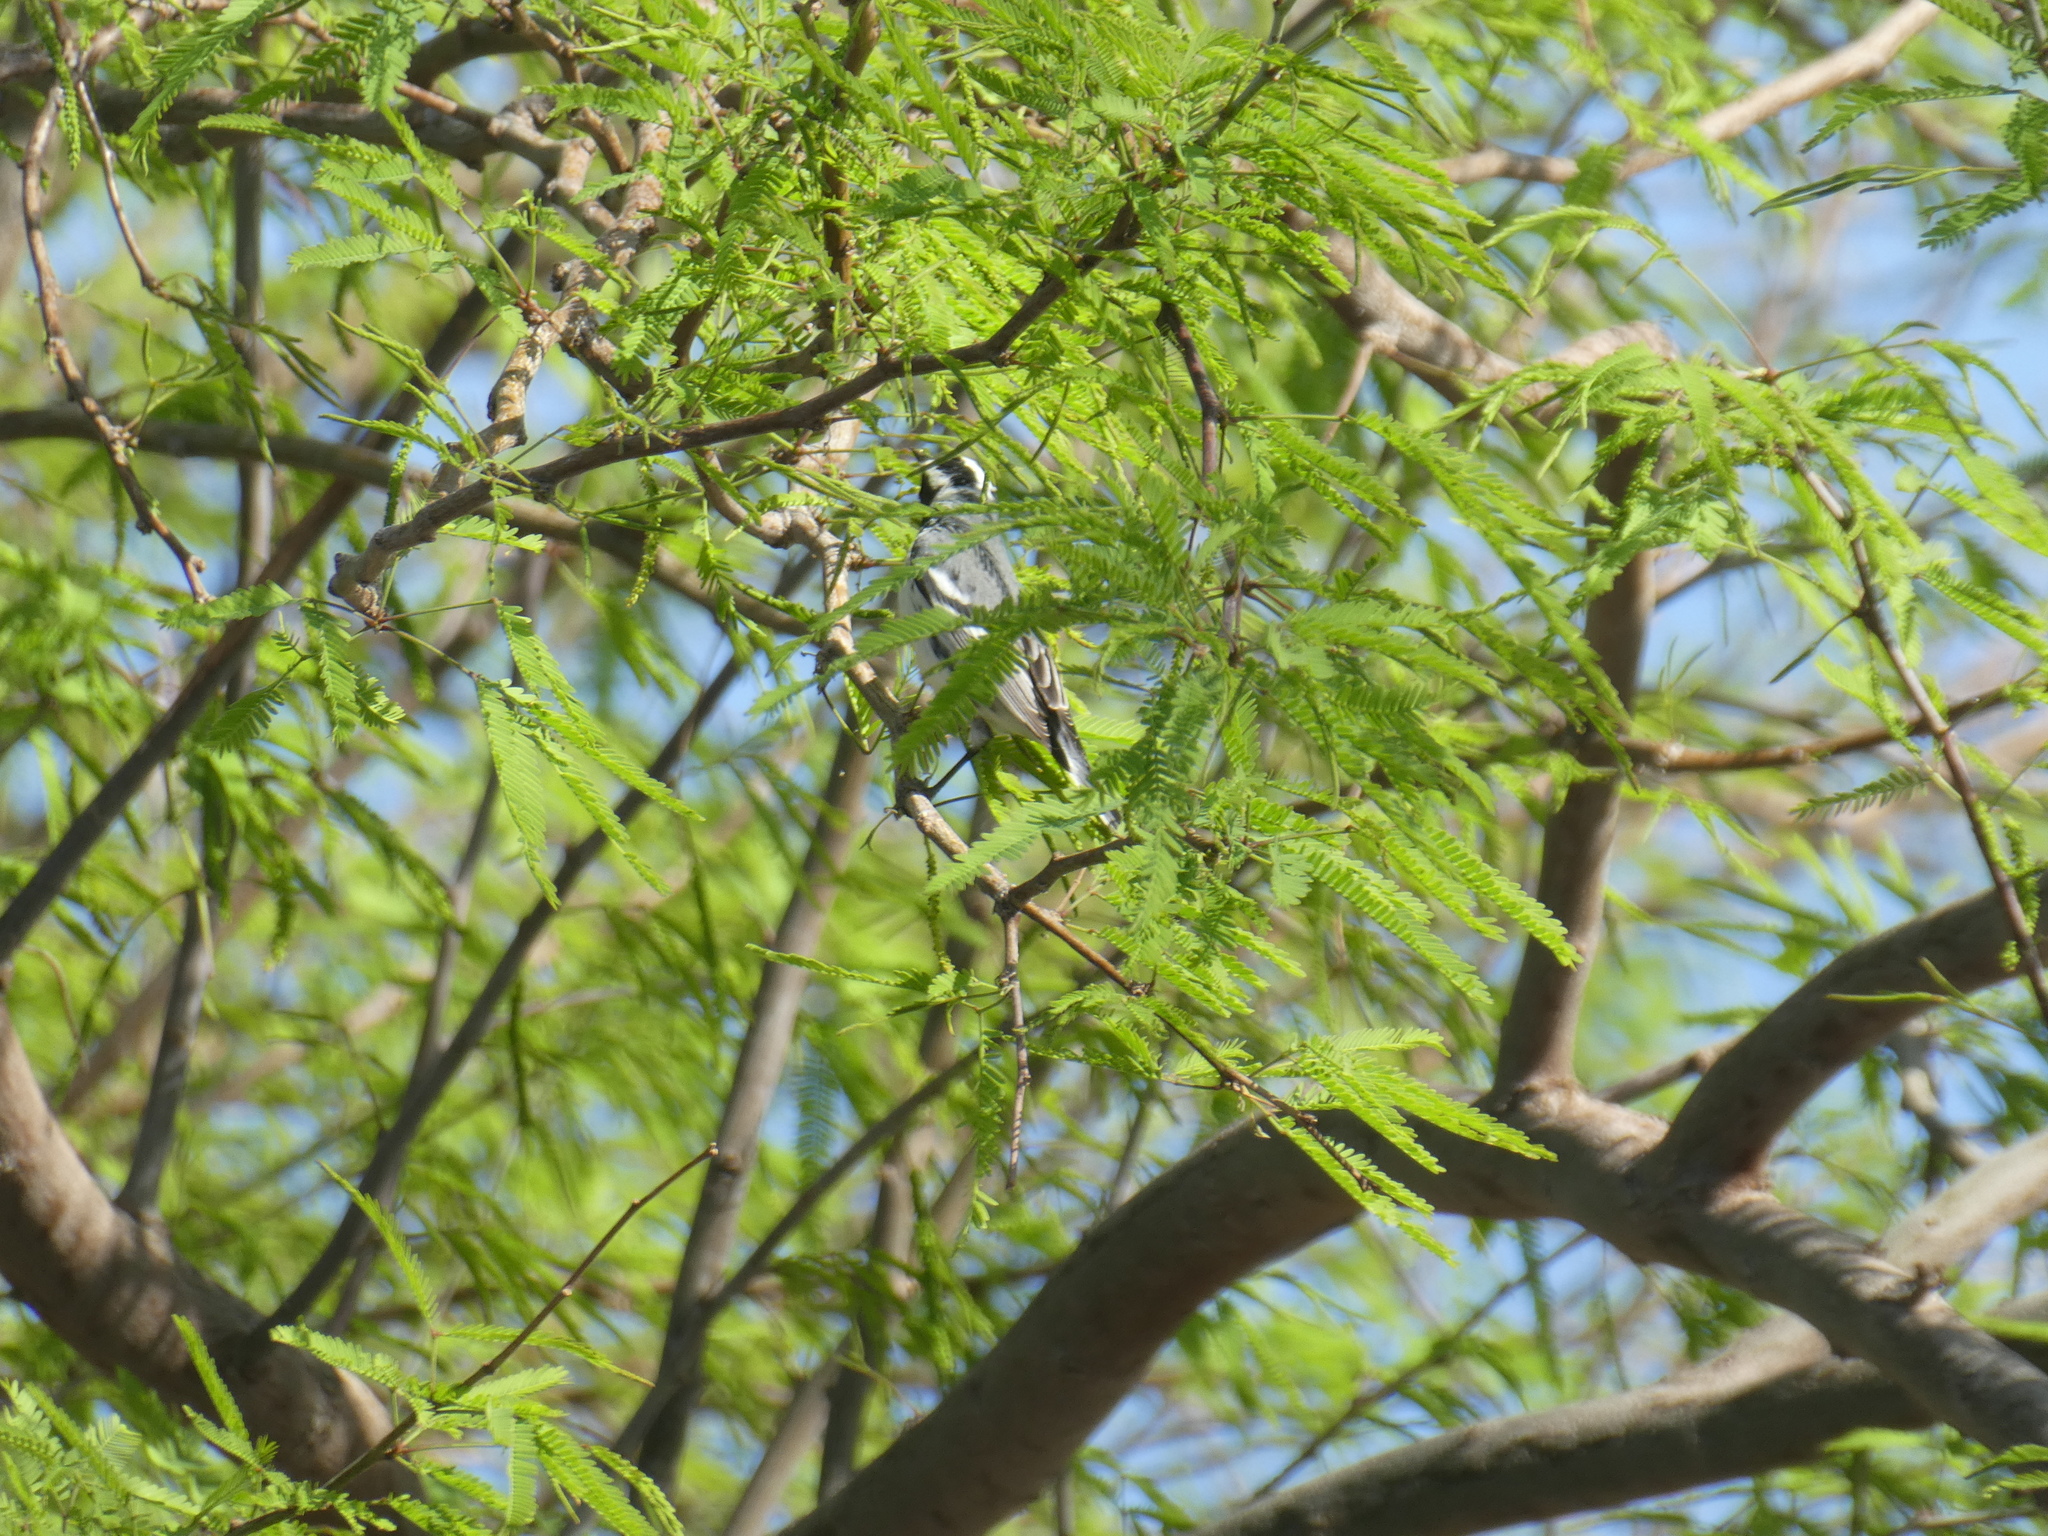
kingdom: Animalia
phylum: Chordata
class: Aves
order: Passeriformes
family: Parulidae
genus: Setophaga
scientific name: Setophaga nigrescens
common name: Black-throated gray warbler
